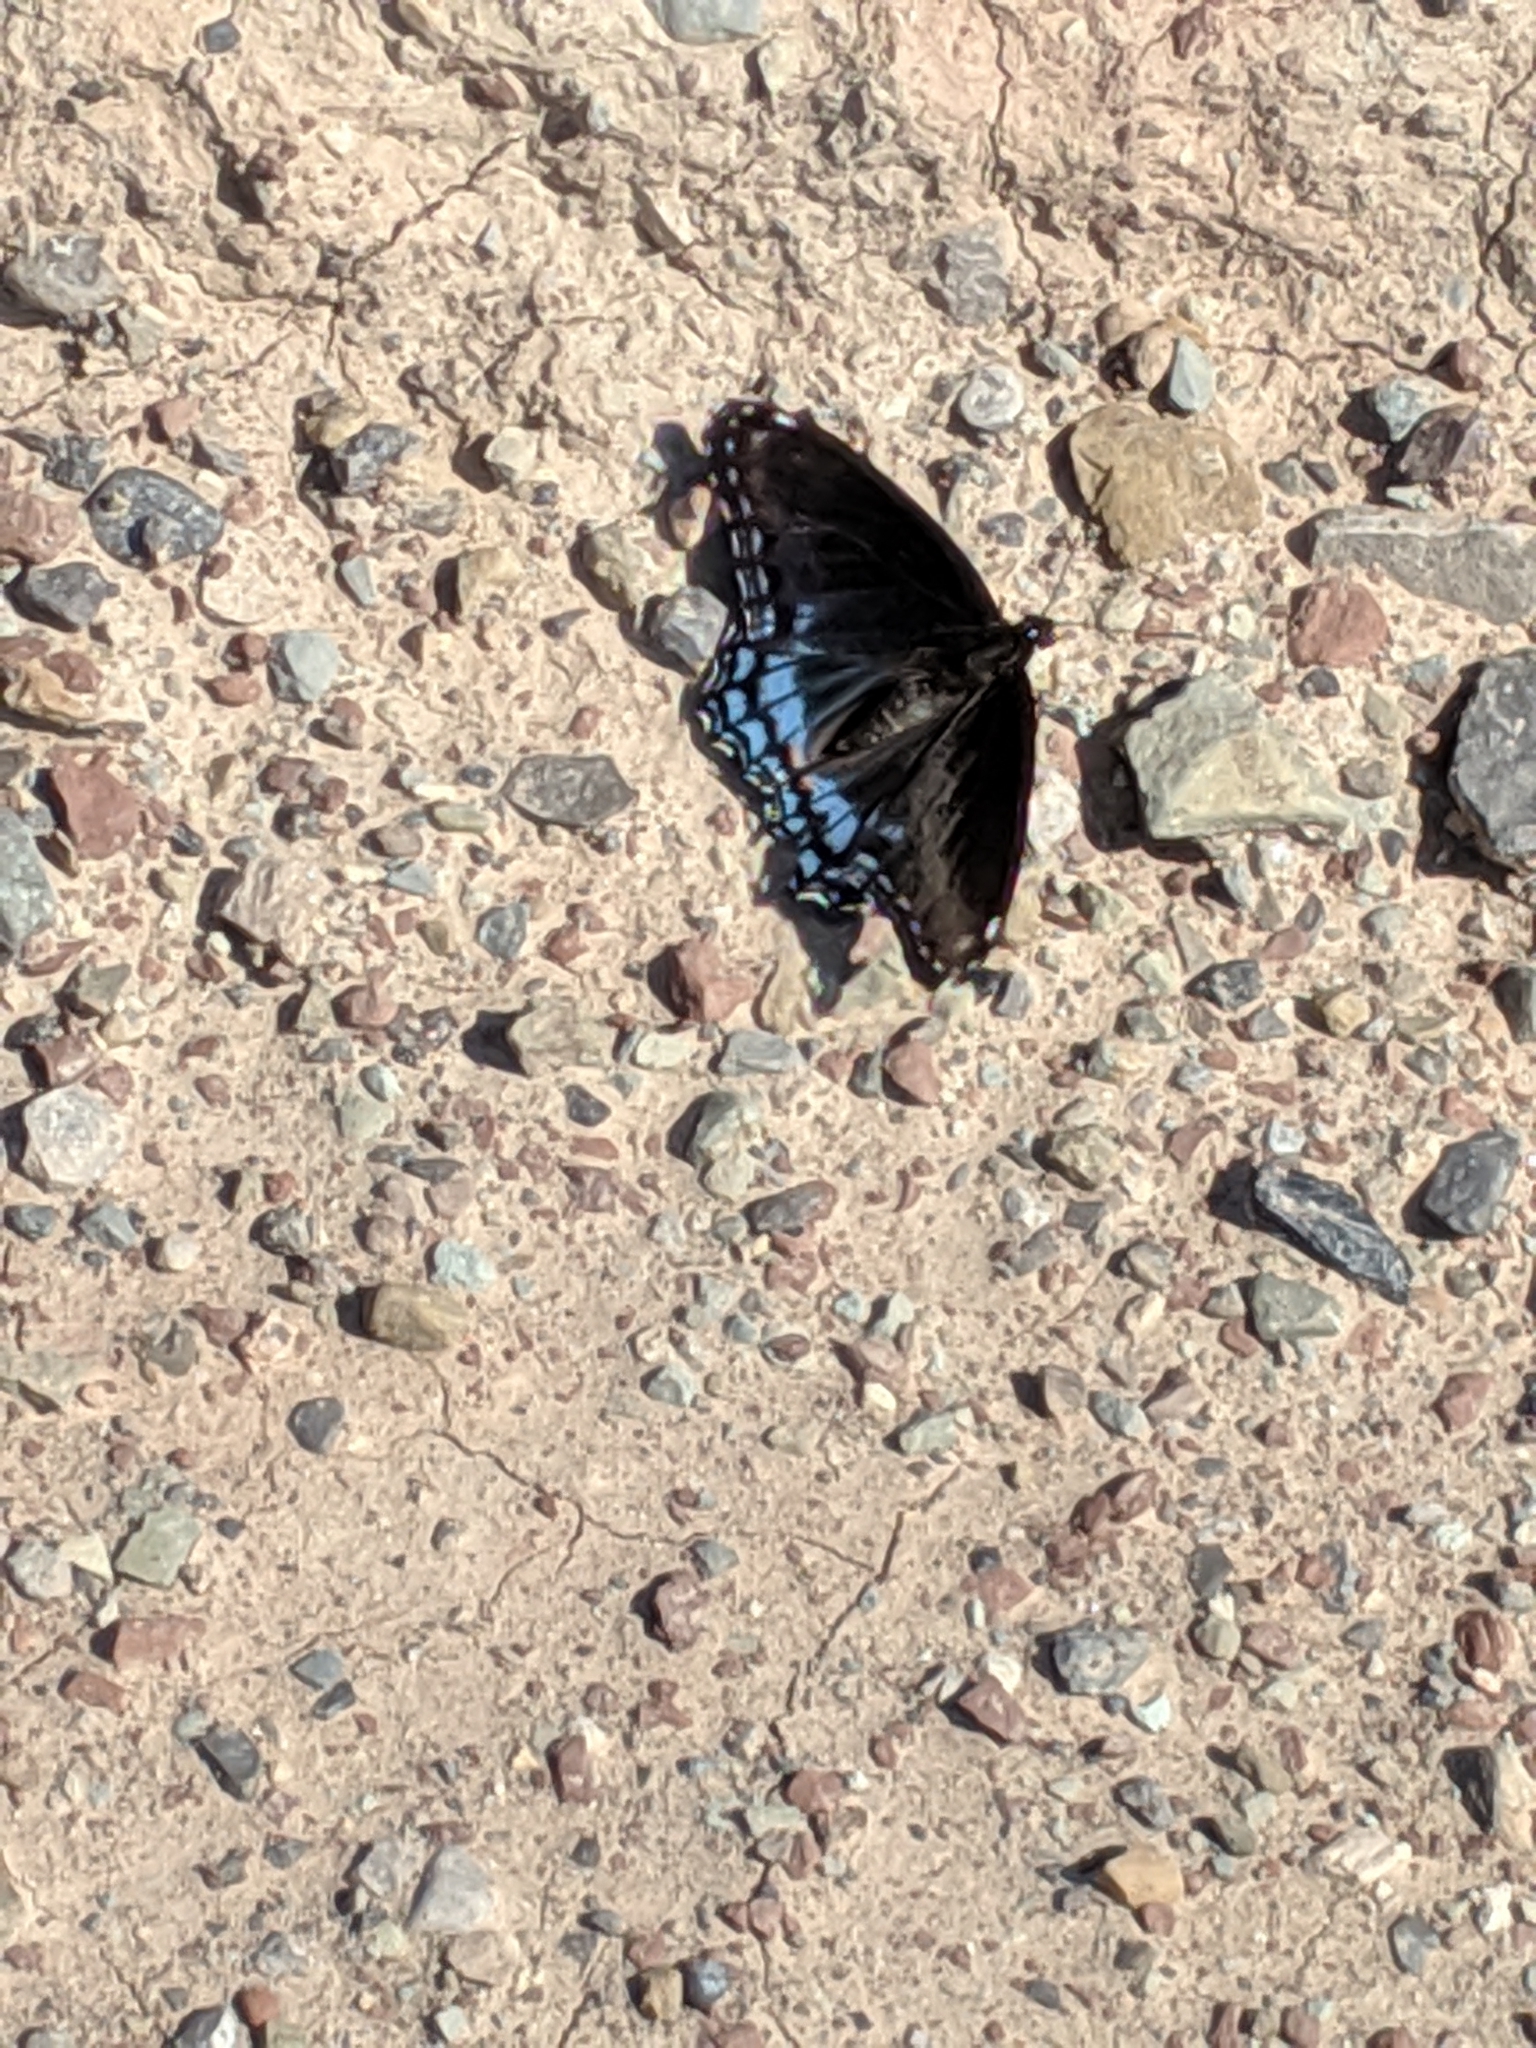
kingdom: Animalia
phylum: Arthropoda
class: Insecta
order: Lepidoptera
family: Nymphalidae
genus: Limenitis
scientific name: Limenitis astyanax
